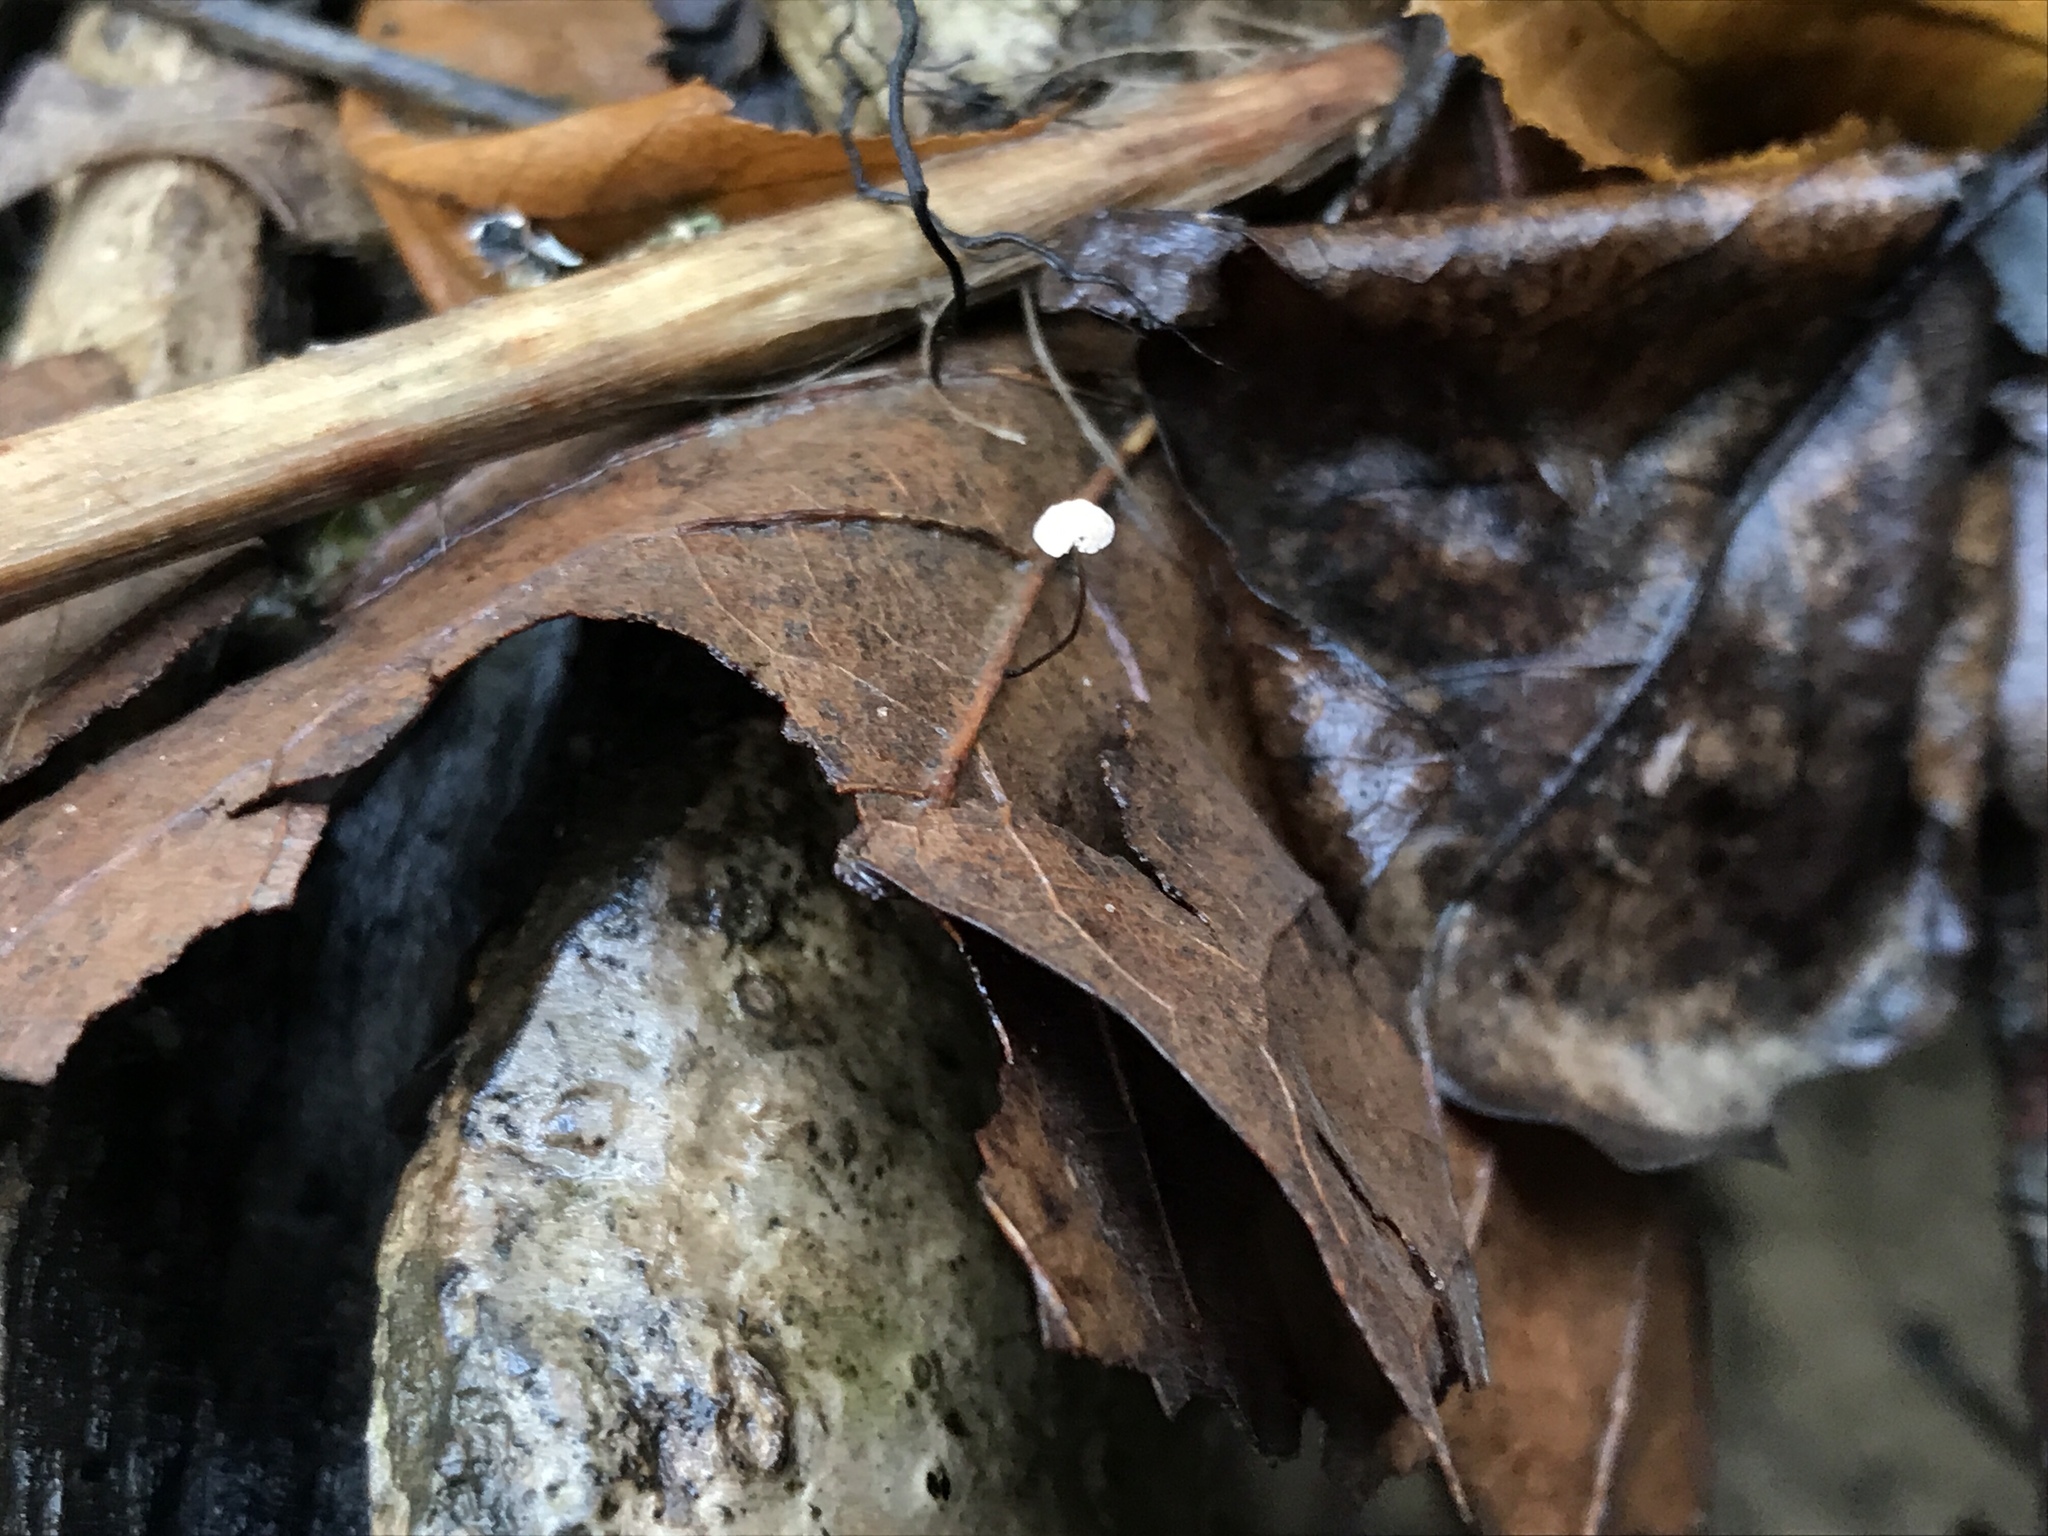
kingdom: Fungi
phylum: Basidiomycota
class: Agaricomycetes
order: Agaricales
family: Omphalotaceae
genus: Collybiopsis
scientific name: Collybiopsis quercophila
